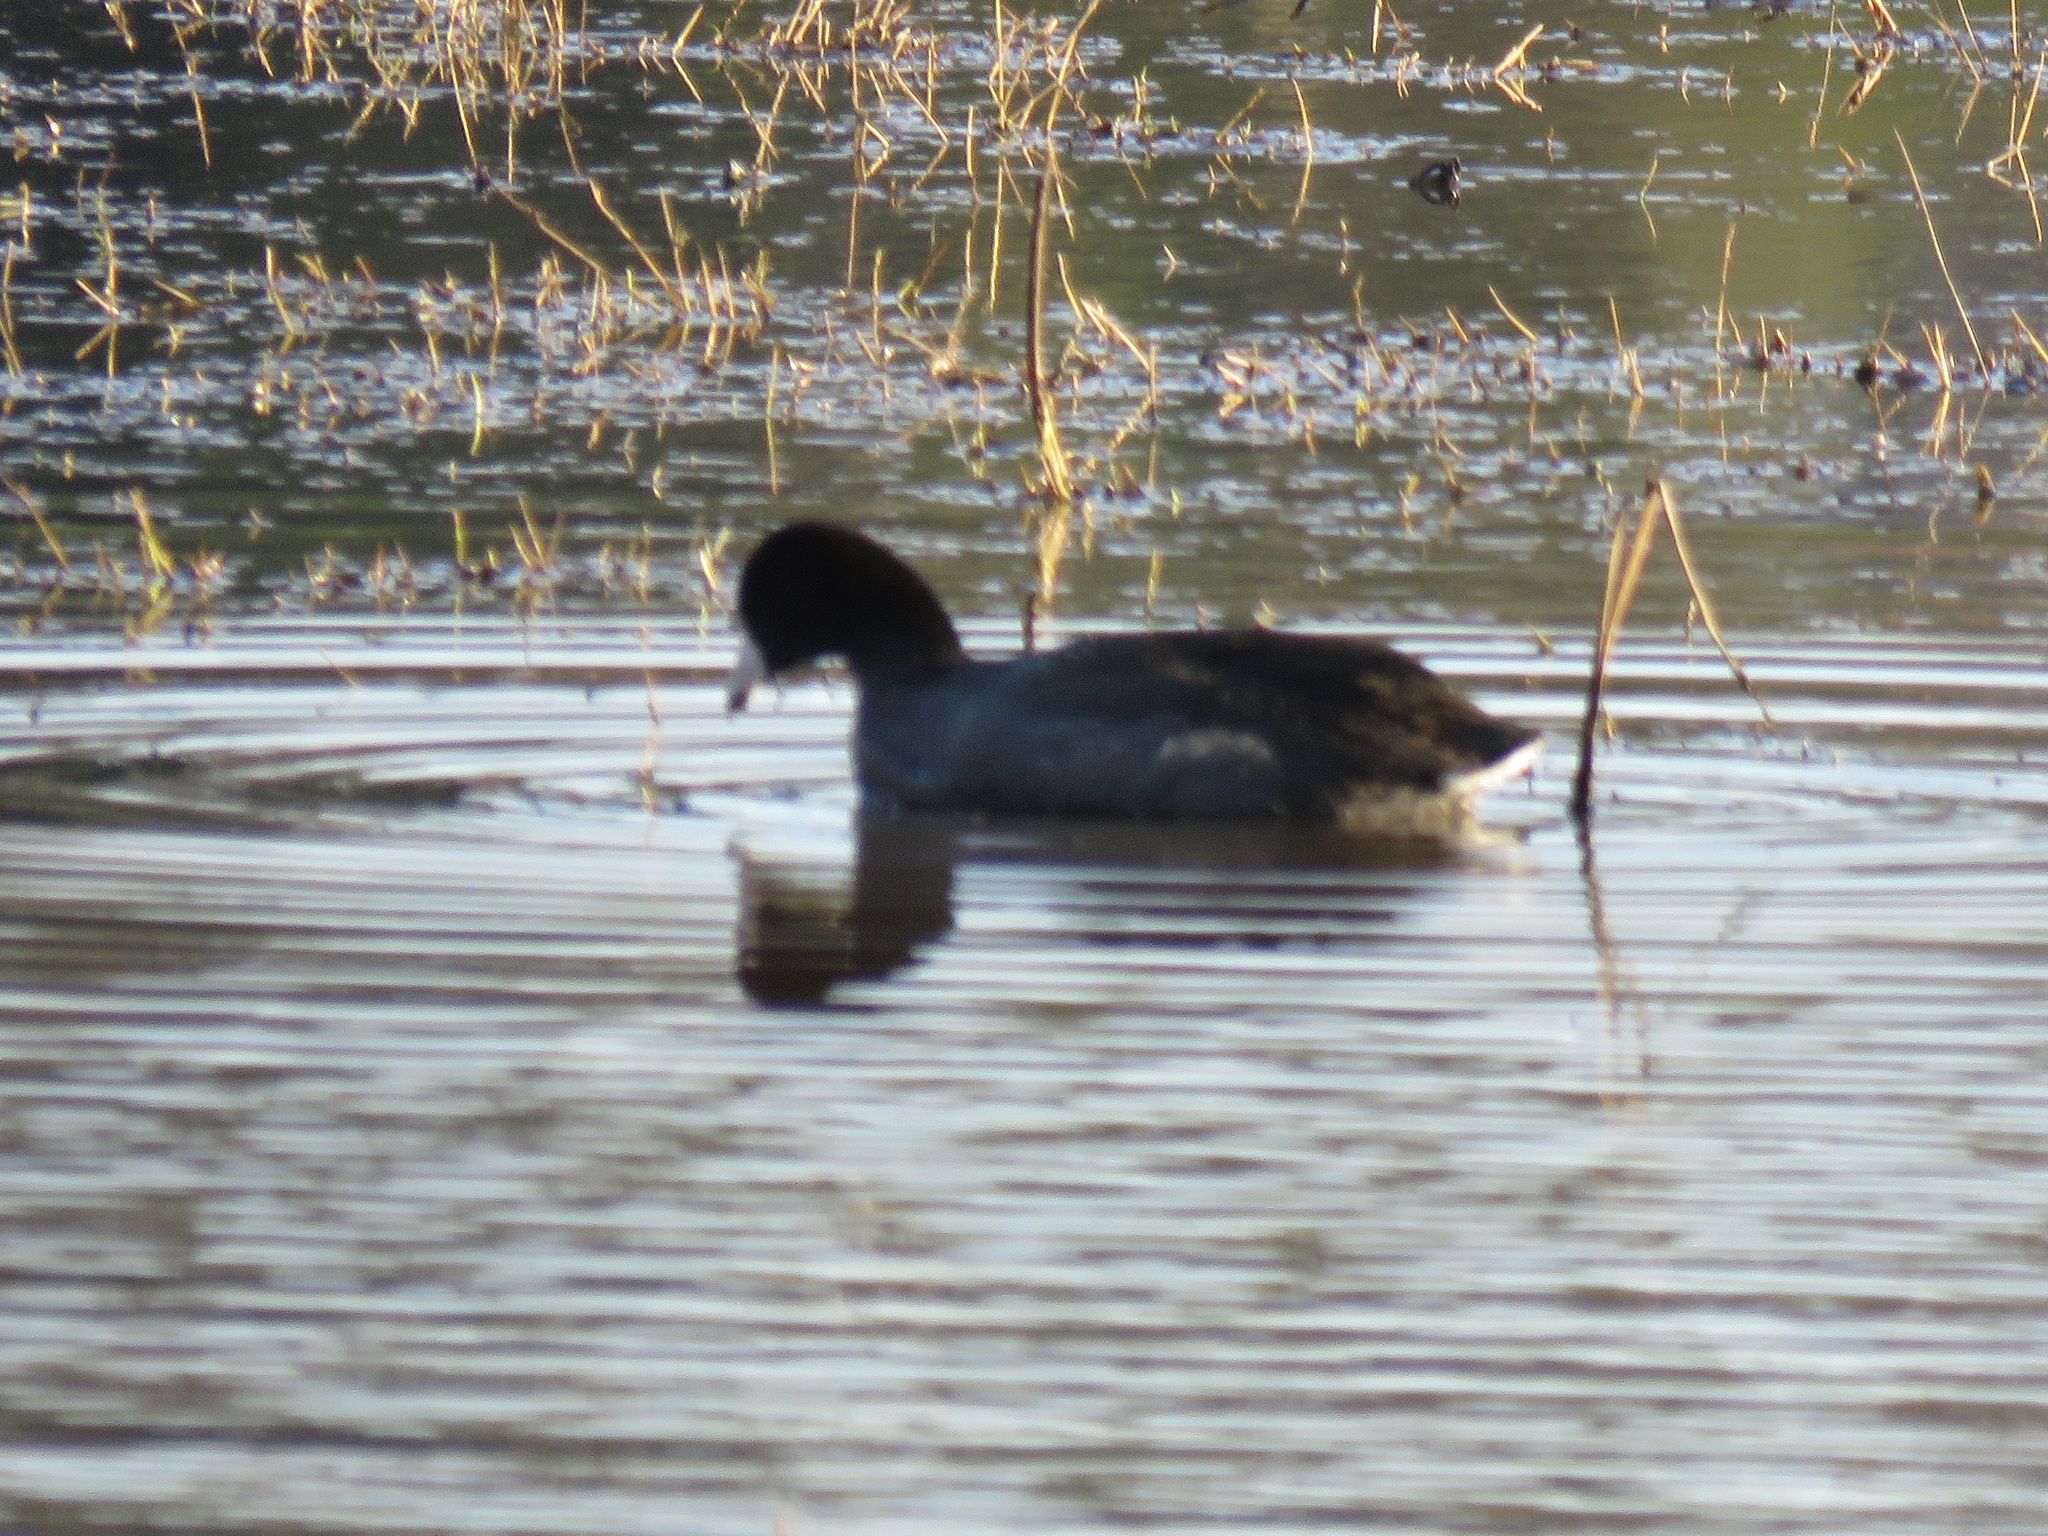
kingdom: Animalia
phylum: Chordata
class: Aves
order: Gruiformes
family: Rallidae
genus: Fulica
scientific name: Fulica americana
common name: American coot
